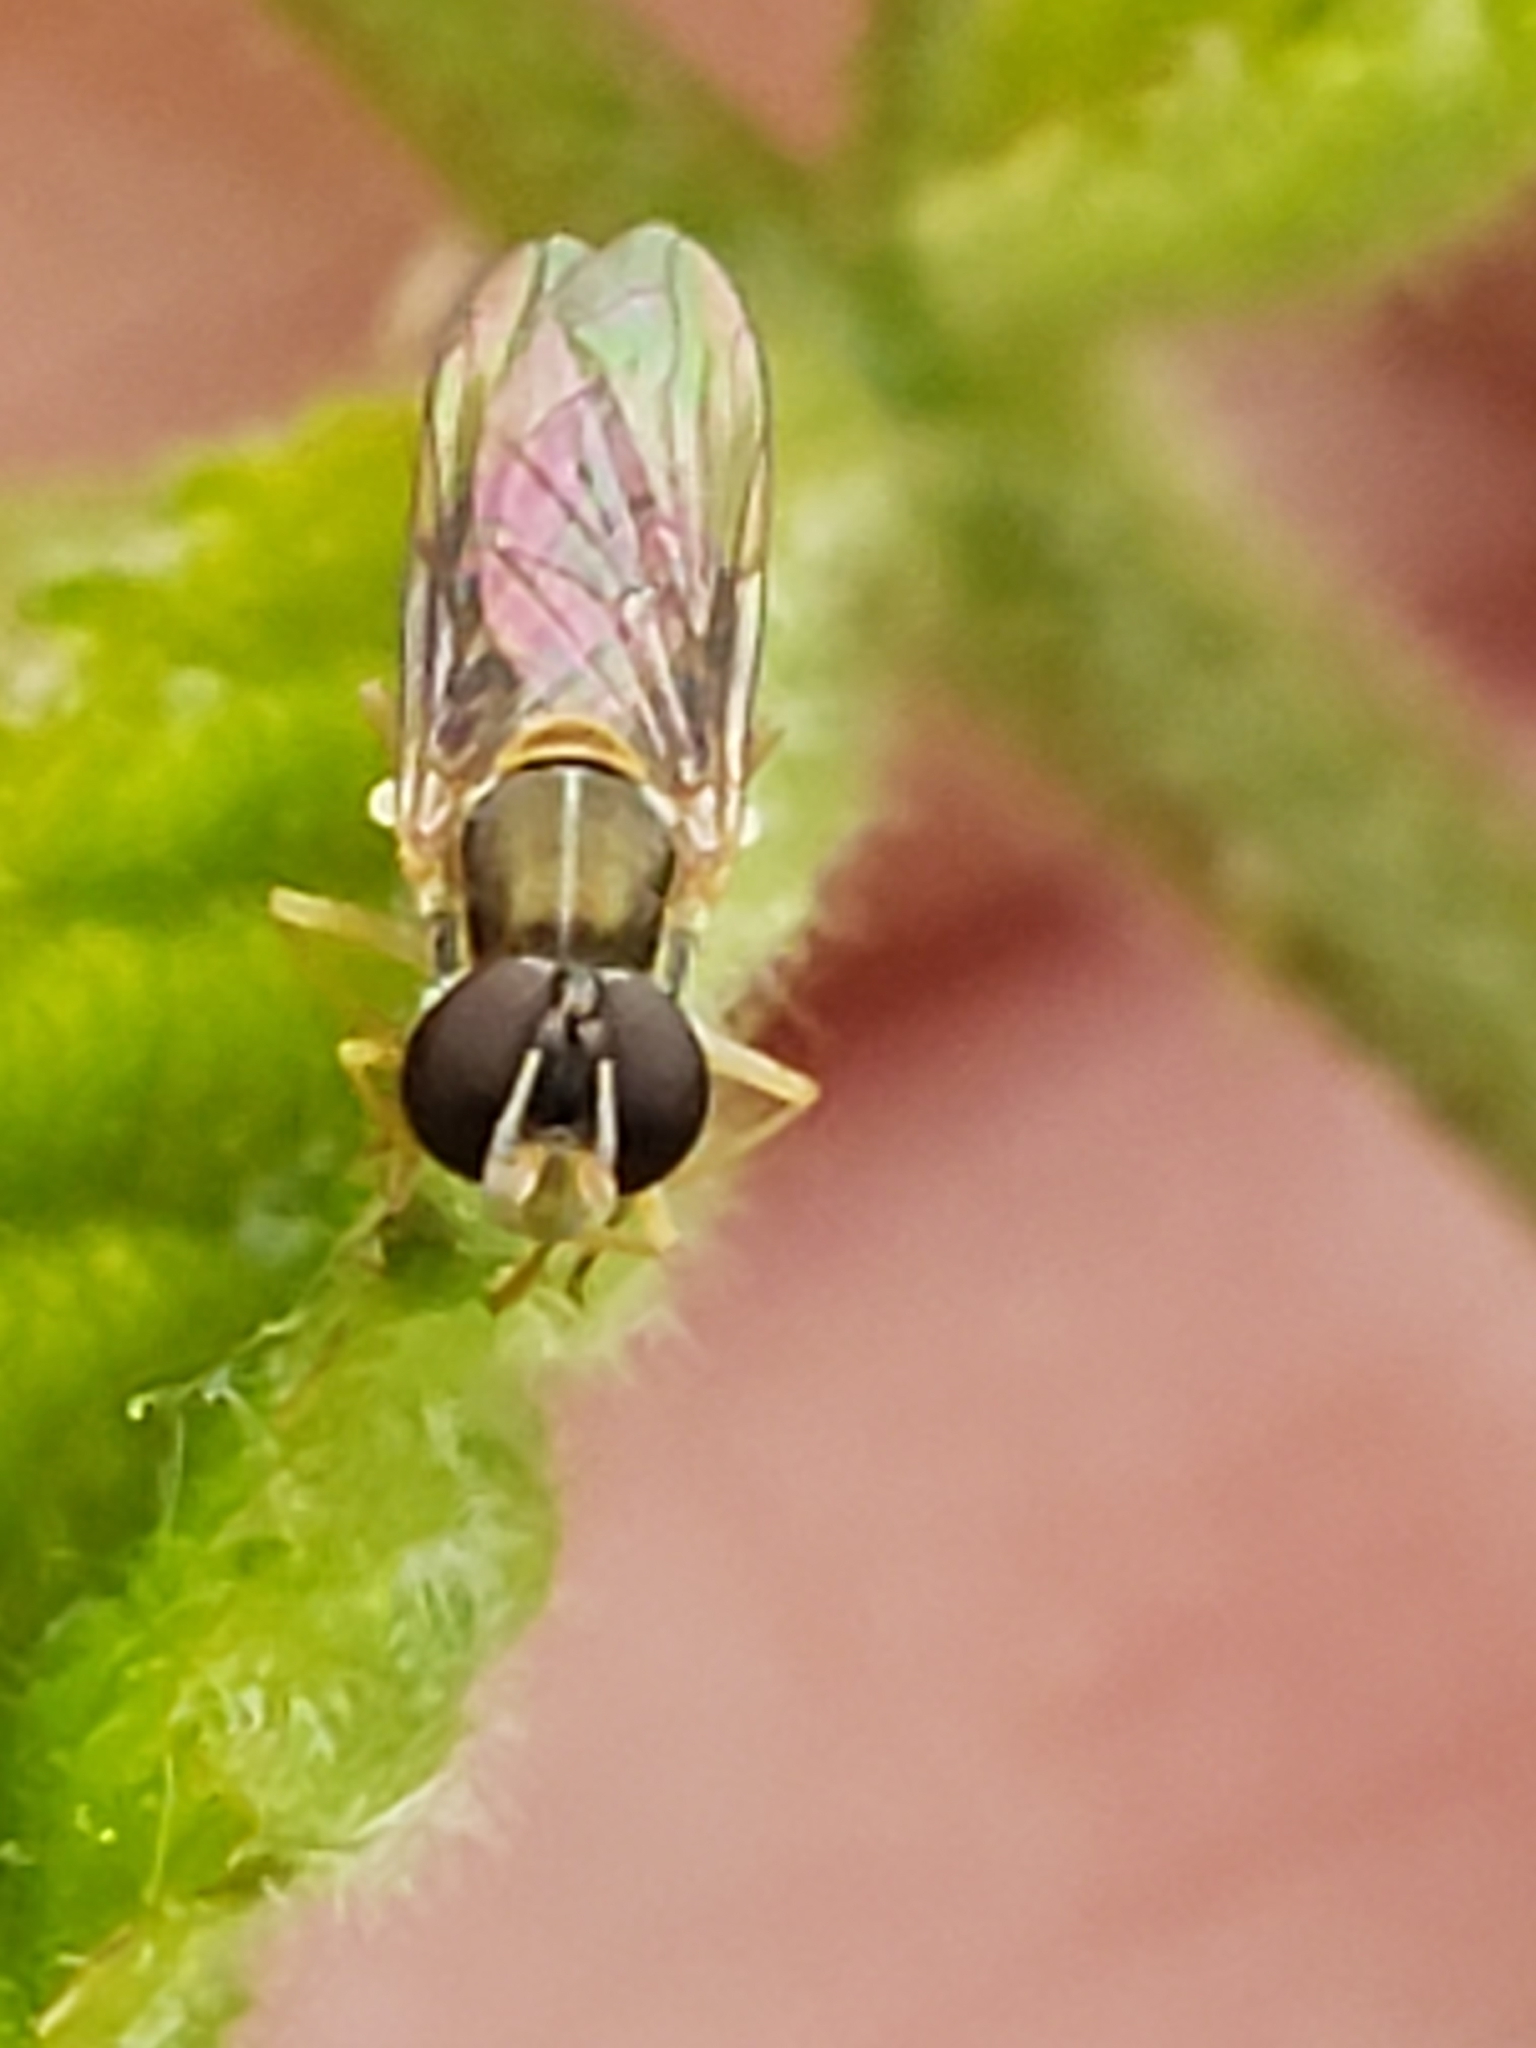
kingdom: Animalia
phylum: Arthropoda
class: Insecta
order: Diptera
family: Syrphidae
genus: Toxomerus
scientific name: Toxomerus marginatus
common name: Syrphid fly
